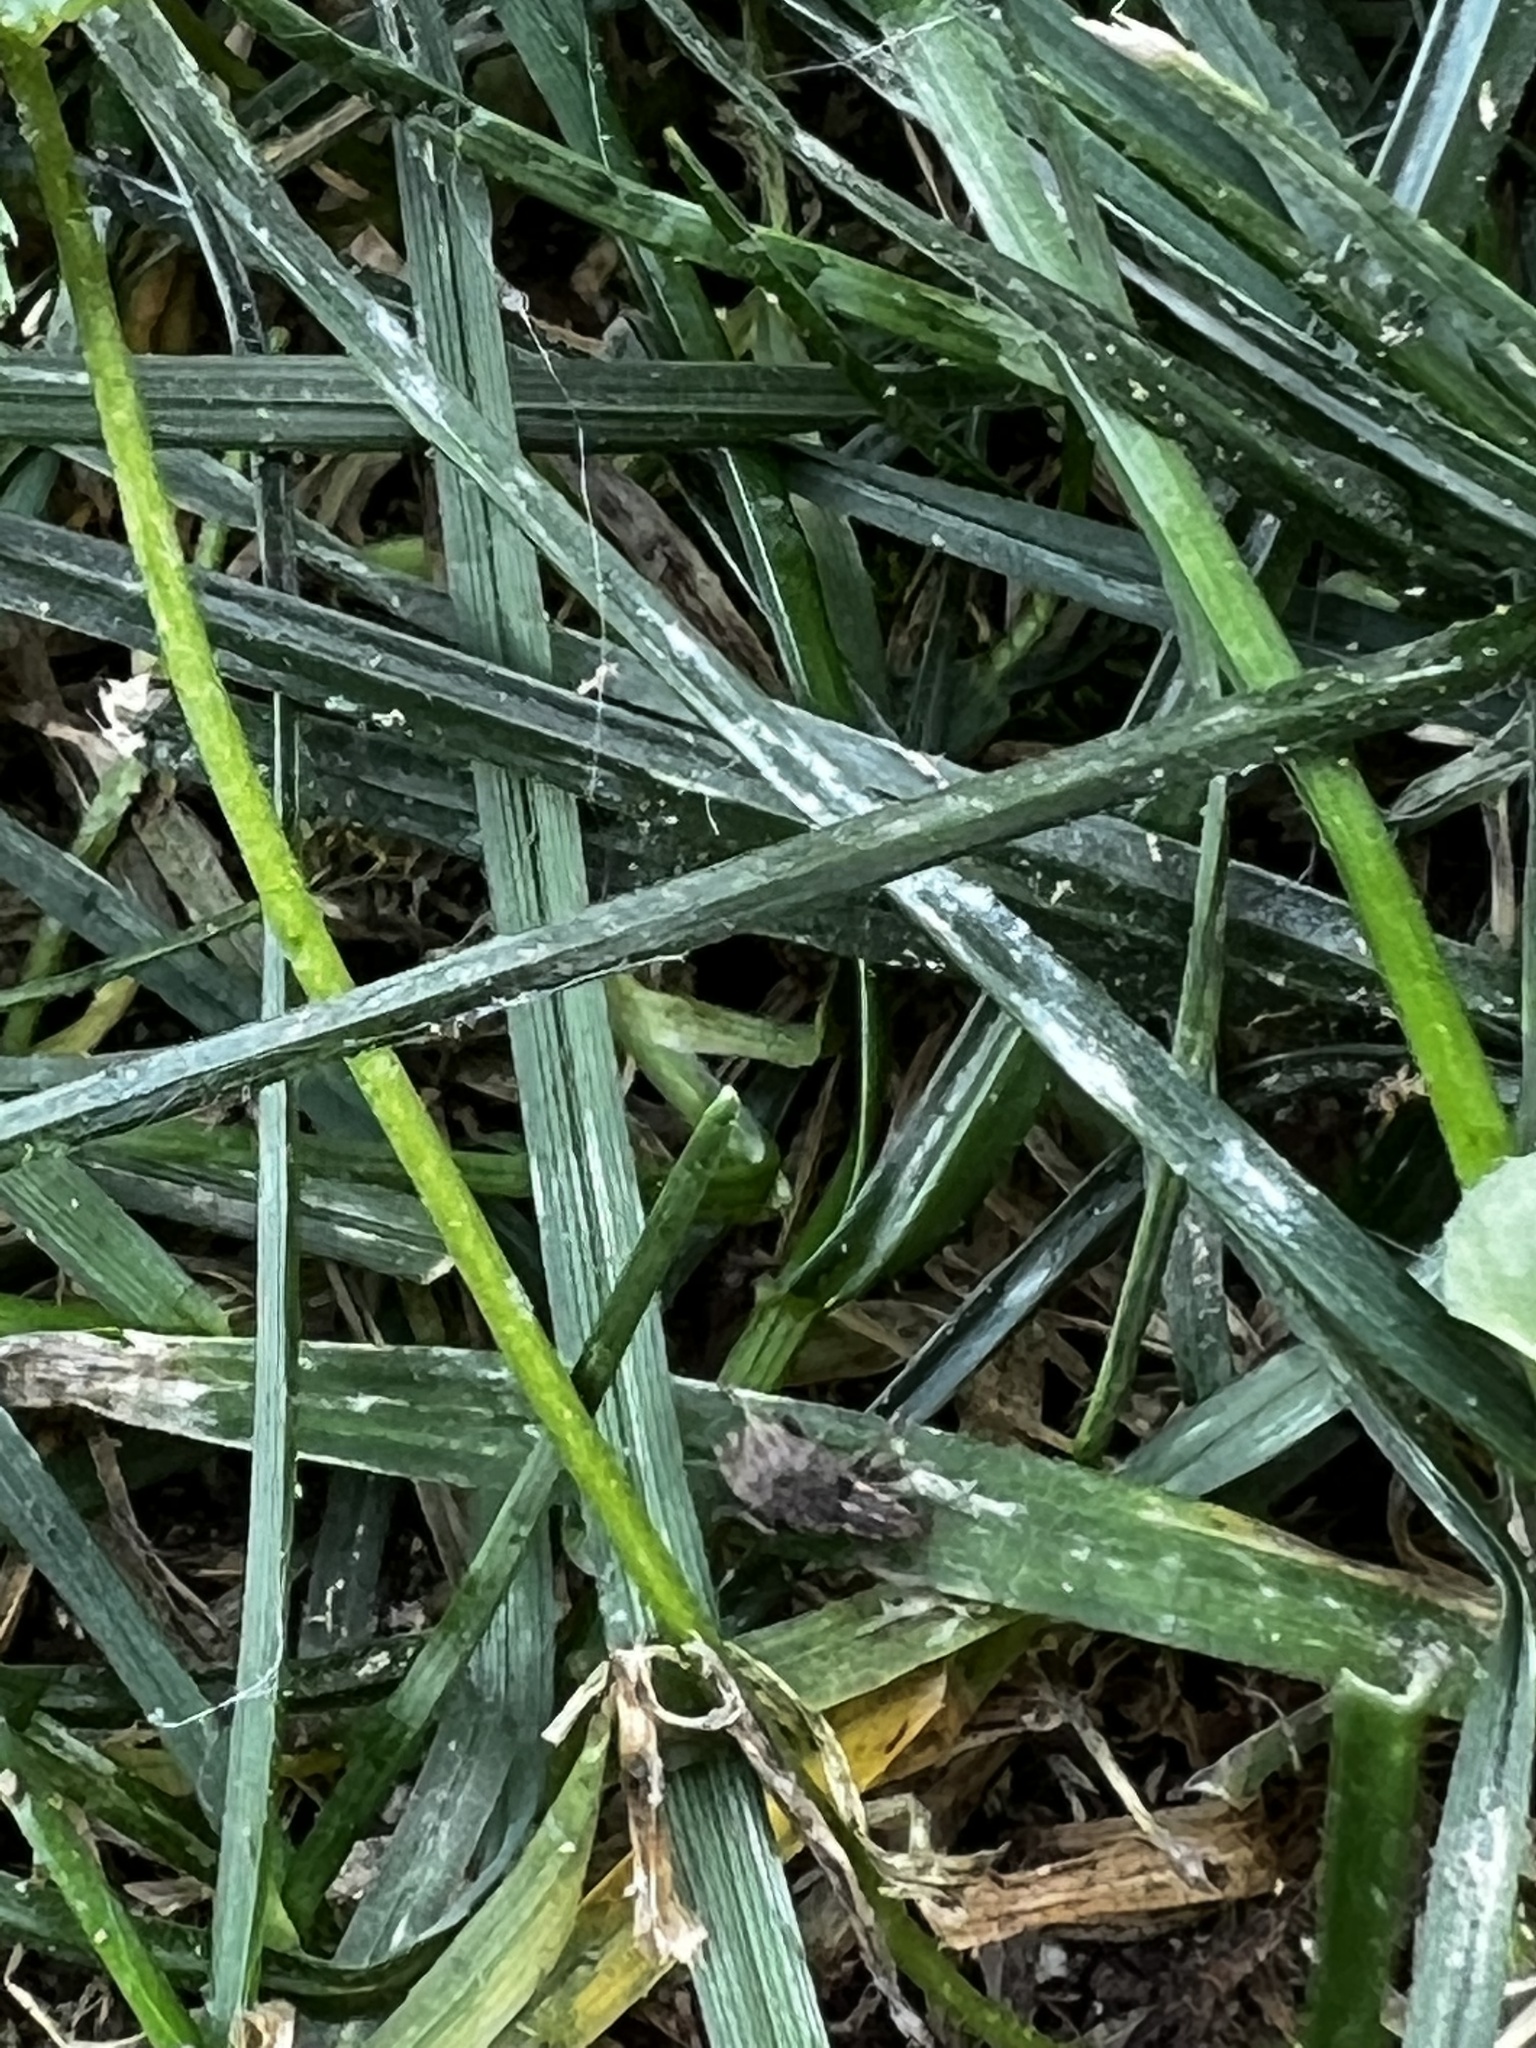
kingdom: Animalia
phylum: Arthropoda
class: Insecta
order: Coleoptera
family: Curculionidae
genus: Sitona
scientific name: Sitona hispidulus
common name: Clover weevil
